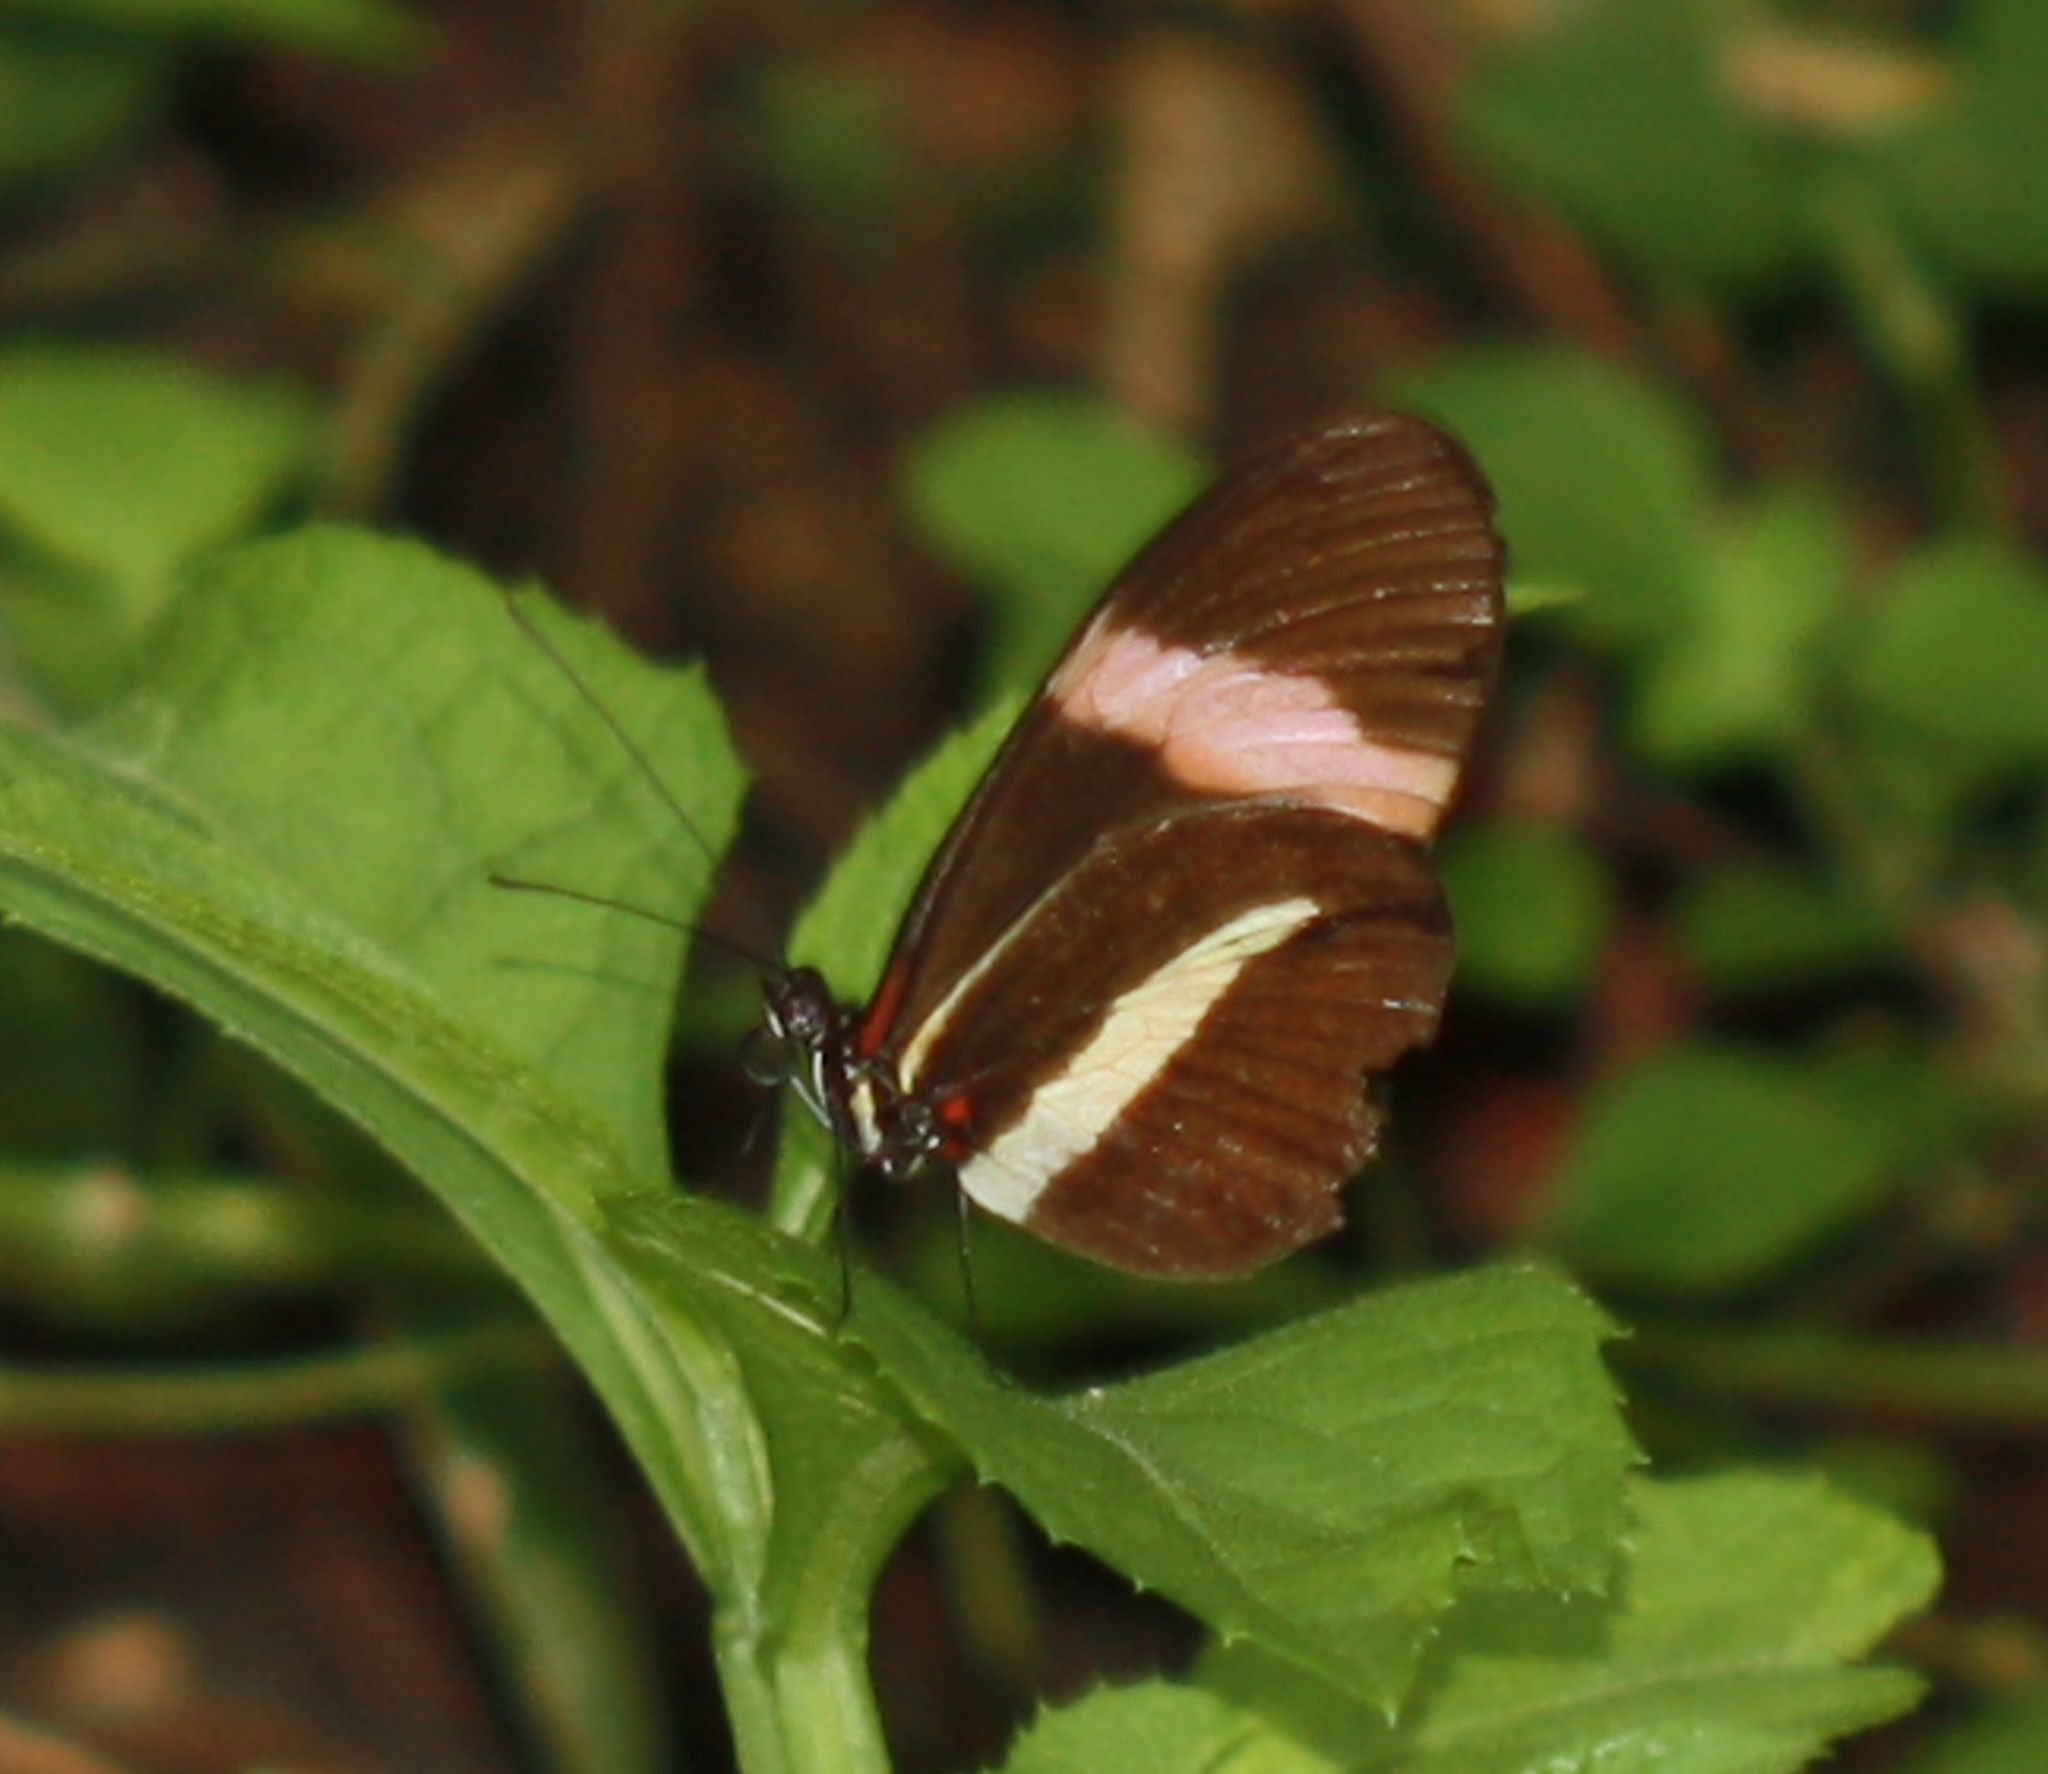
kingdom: Animalia
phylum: Arthropoda
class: Insecta
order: Lepidoptera
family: Nymphalidae
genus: Heliconius
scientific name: Heliconius melpomene
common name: Postman
